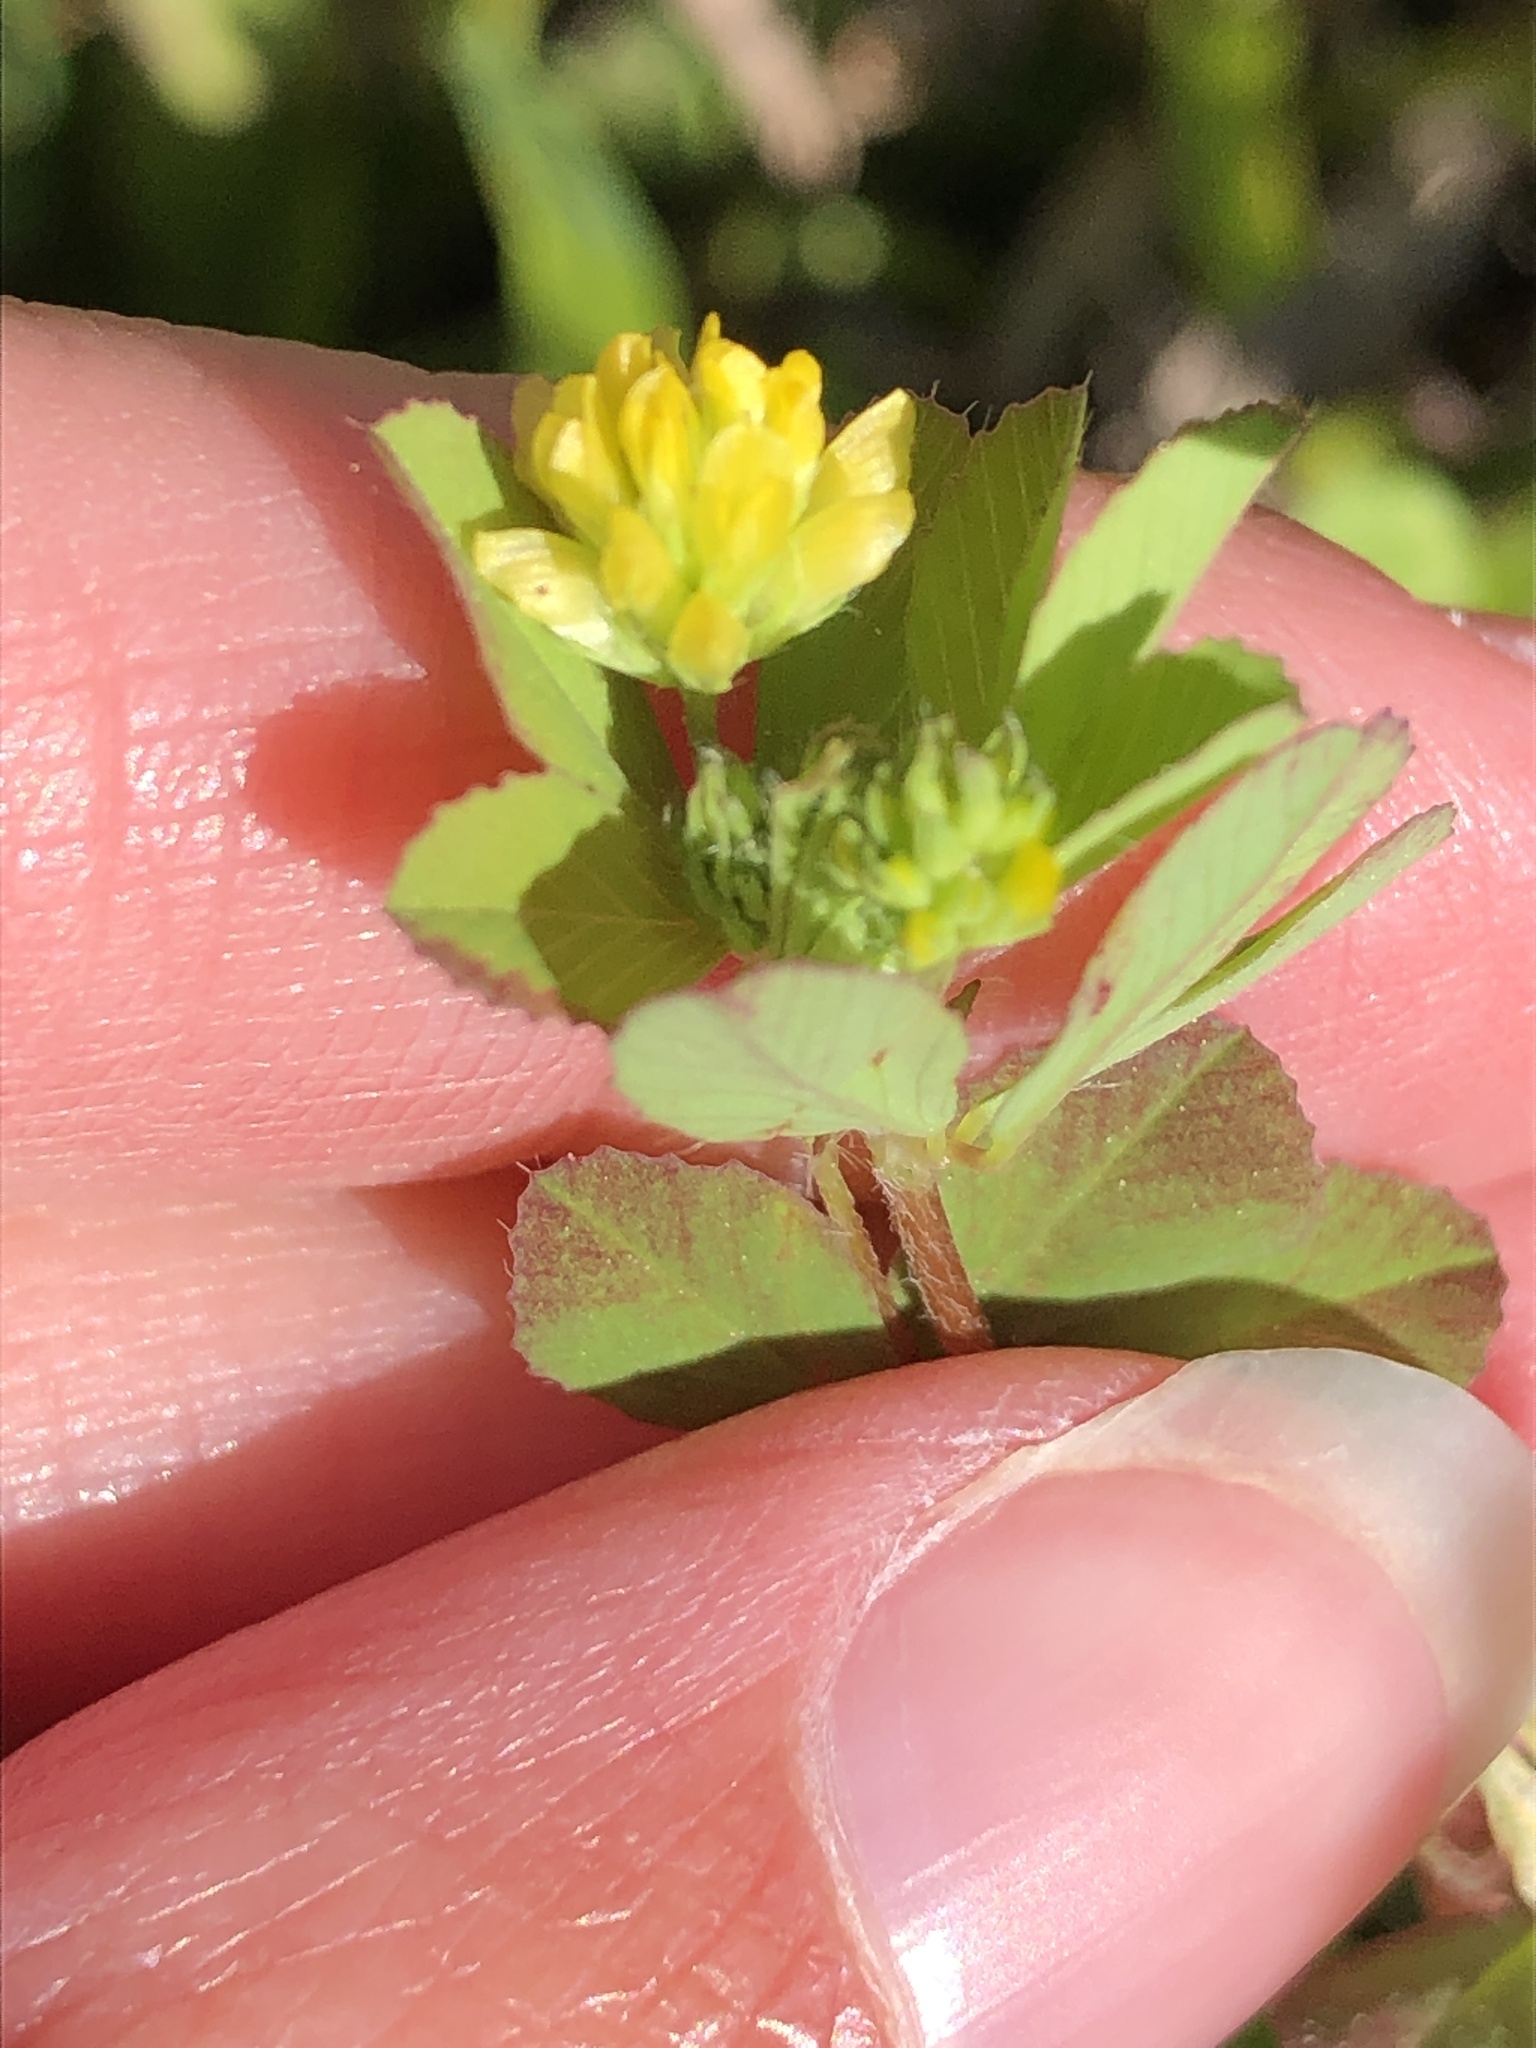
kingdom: Plantae
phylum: Tracheophyta
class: Magnoliopsida
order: Fabales
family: Fabaceae
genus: Trifolium
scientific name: Trifolium dubium
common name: Suckling clover
